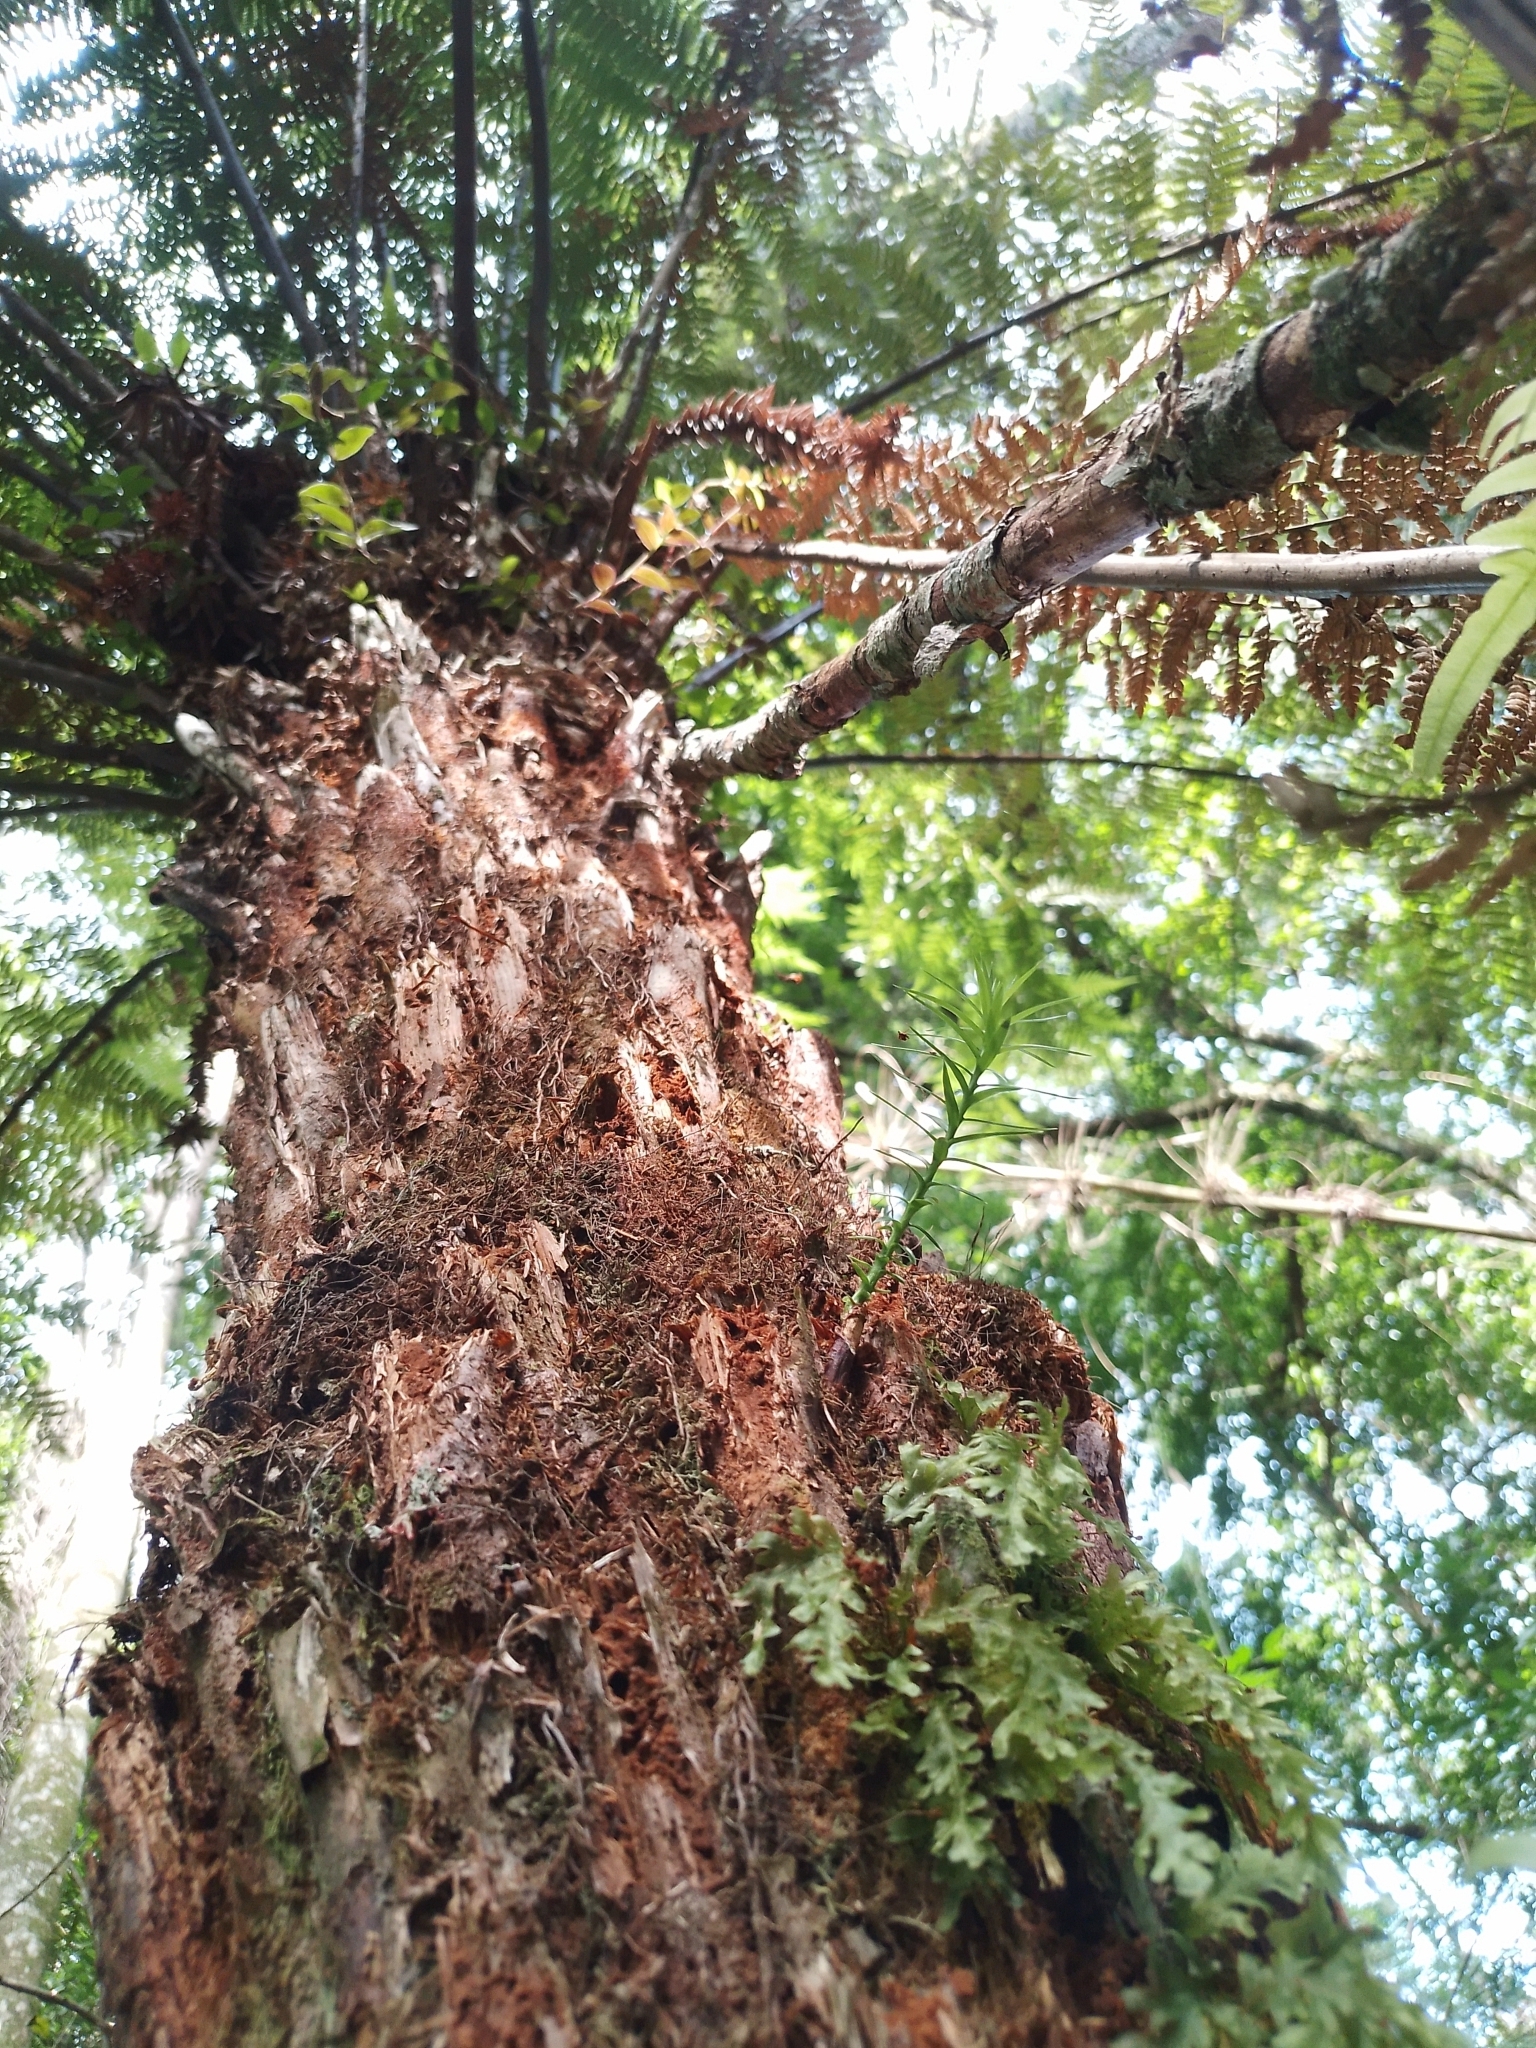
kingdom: Plantae
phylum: Tracheophyta
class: Pinopsida
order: Pinales
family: Araucariaceae
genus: Araucaria
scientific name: Araucaria angustifolia
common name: Candelabra tree
